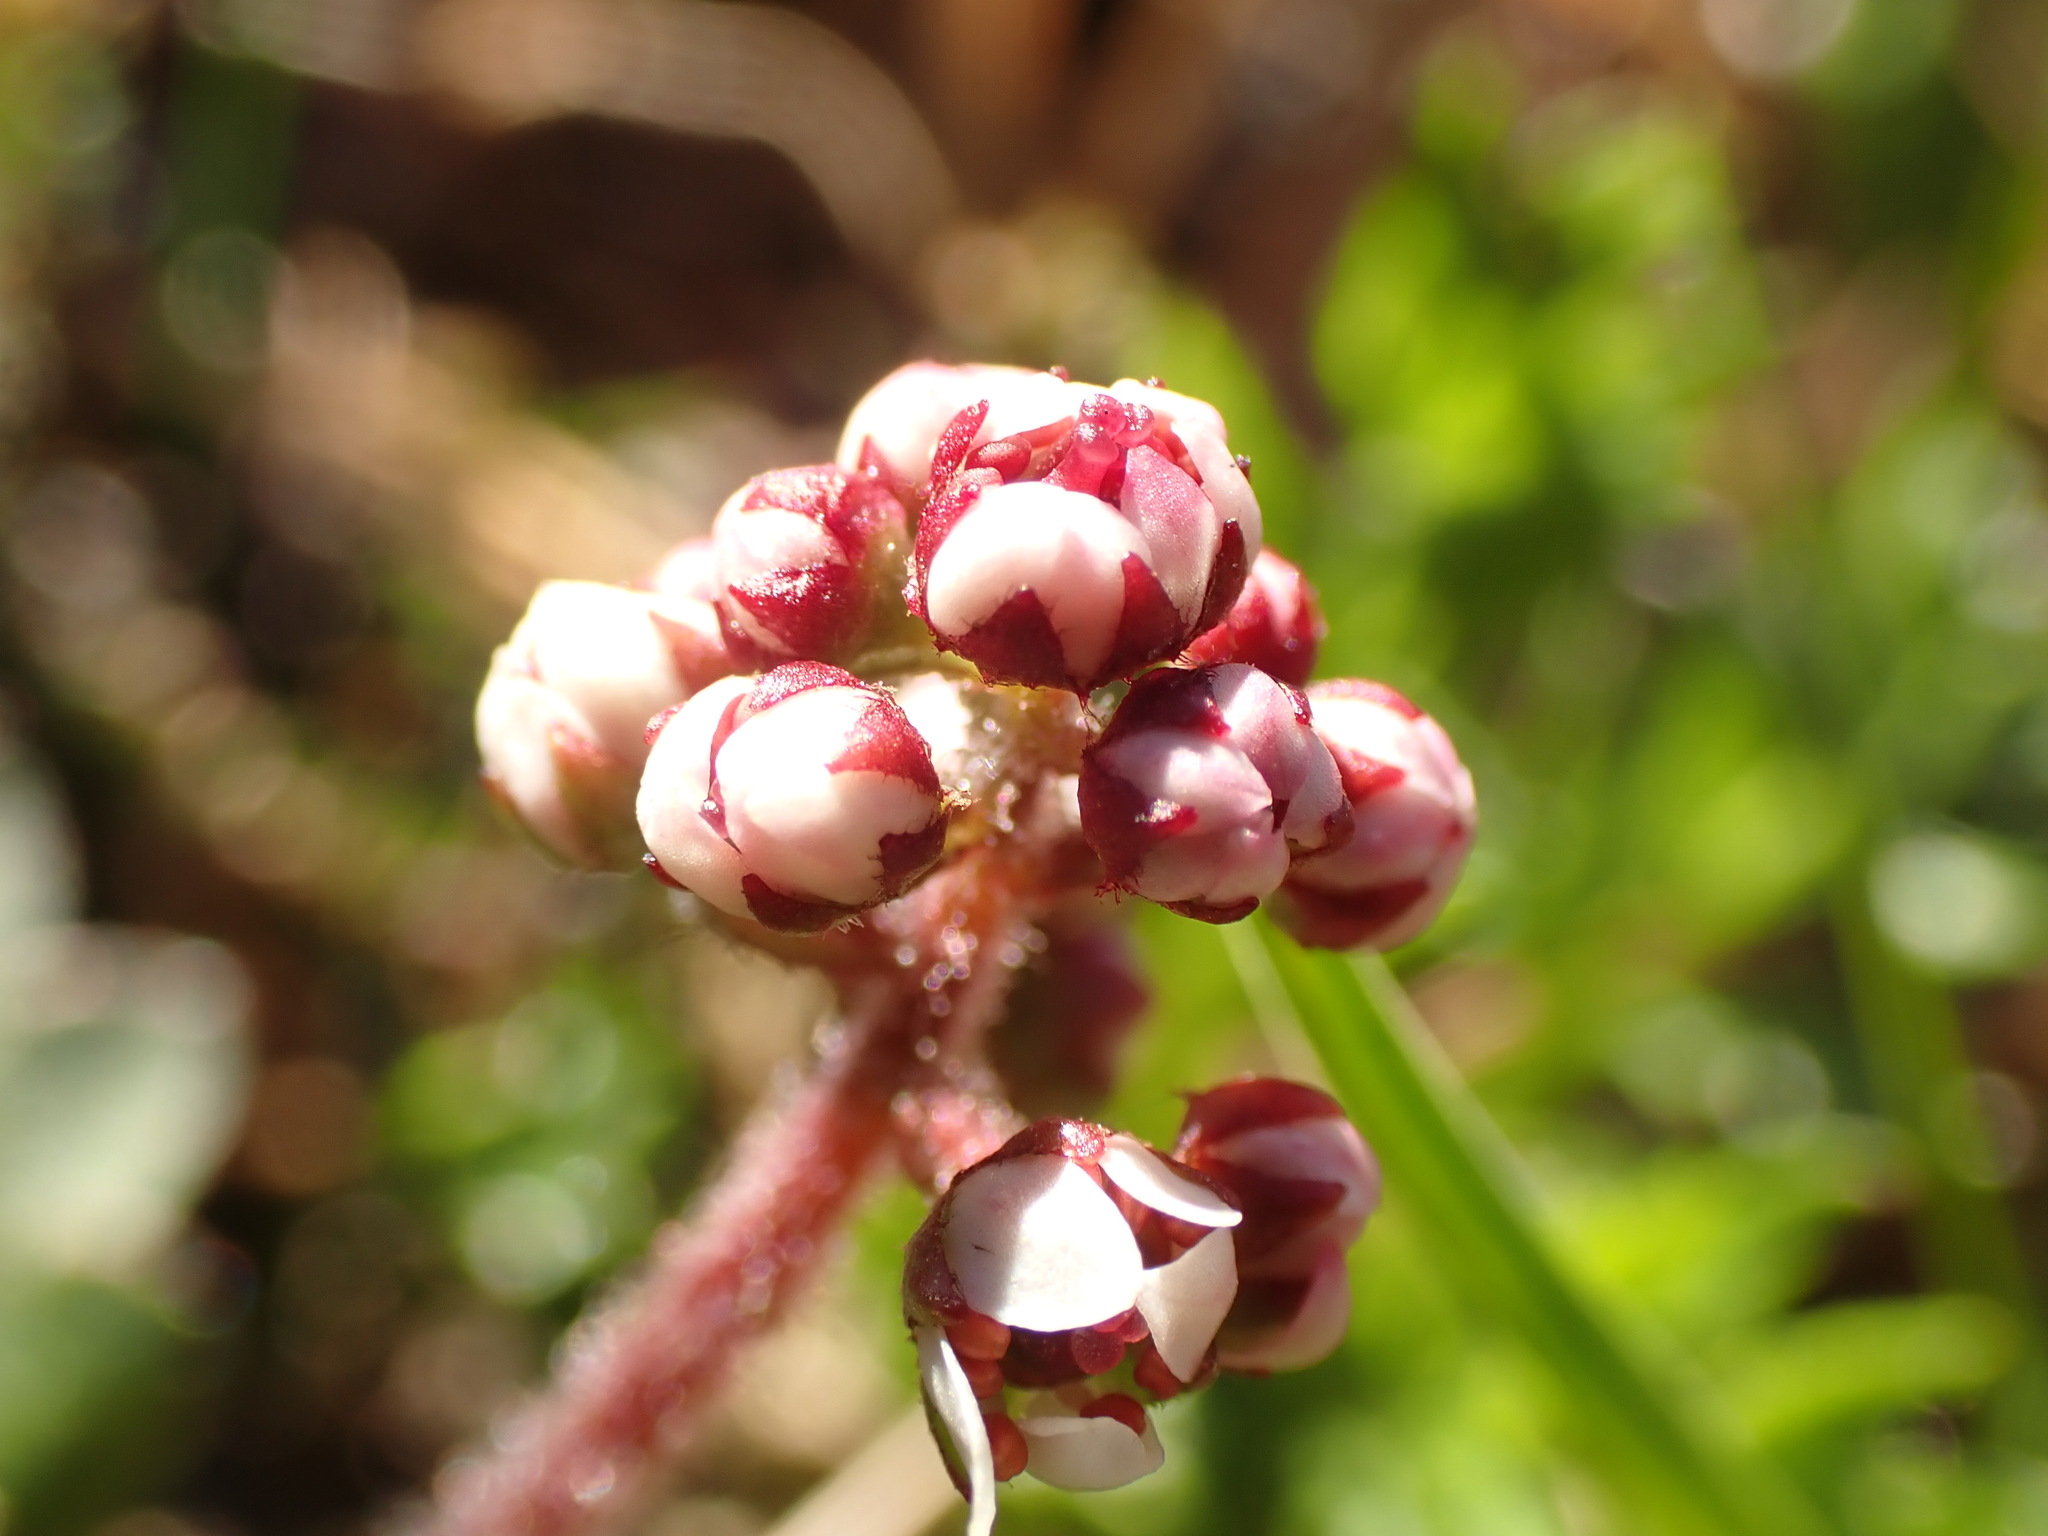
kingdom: Plantae
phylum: Tracheophyta
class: Magnoliopsida
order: Saxifragales
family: Saxifragaceae
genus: Micranthes
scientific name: Micranthes nelsoniana
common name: Nelson's saxifrage
